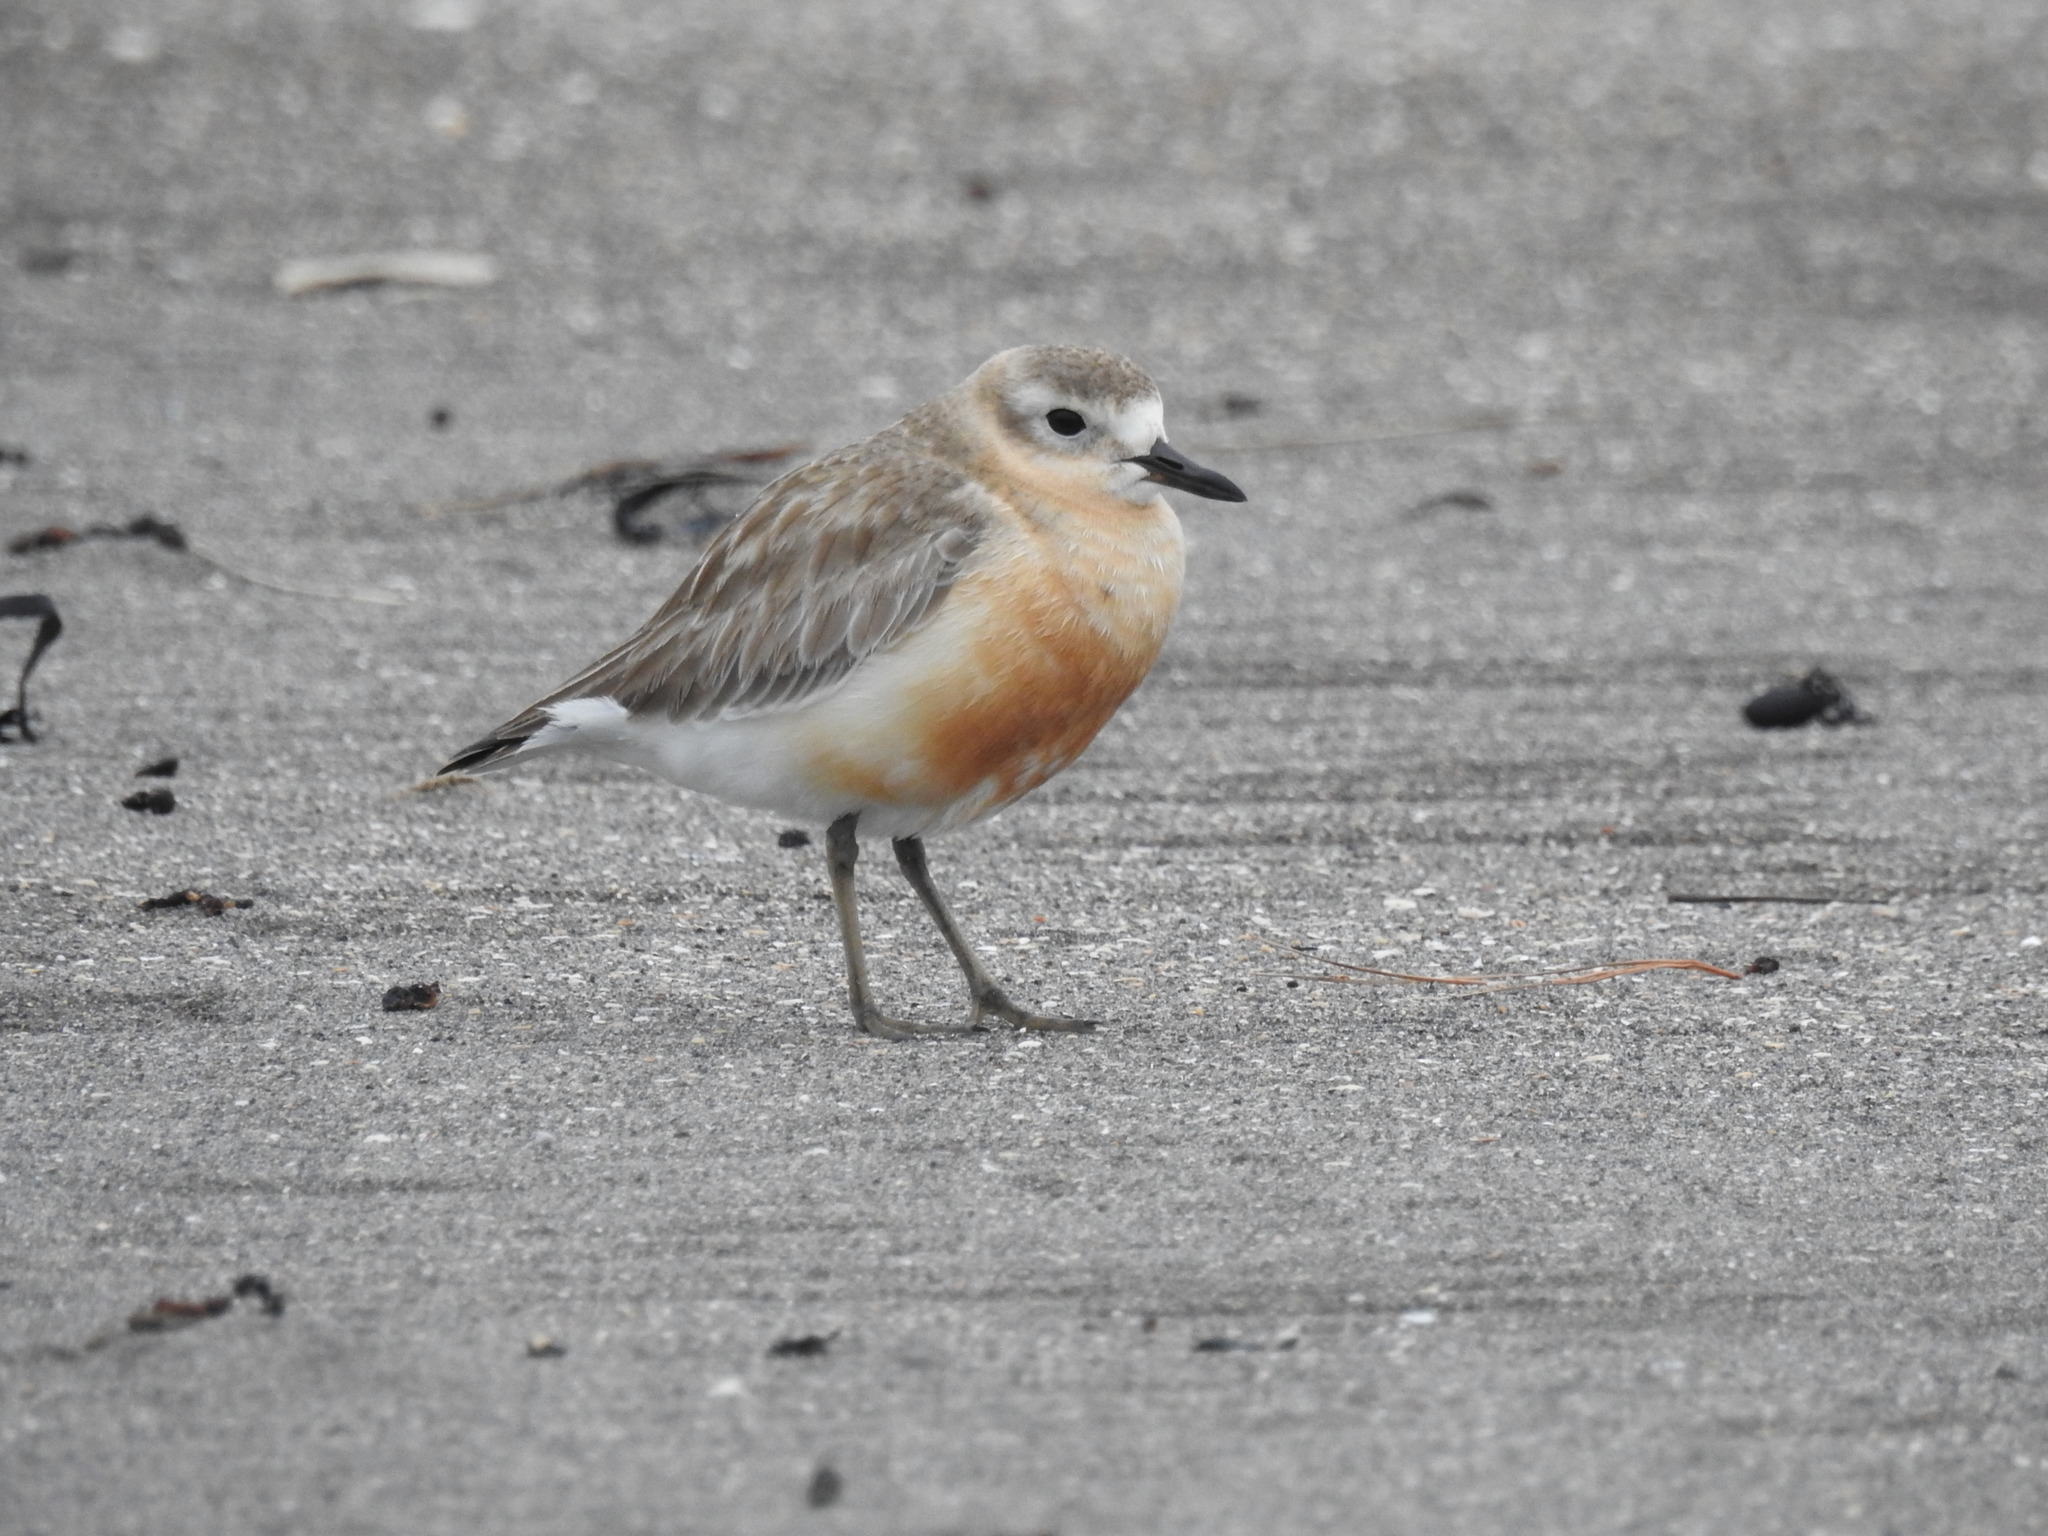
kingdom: Animalia
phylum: Chordata
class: Aves
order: Charadriiformes
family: Charadriidae
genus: Anarhynchus
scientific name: Anarhynchus
